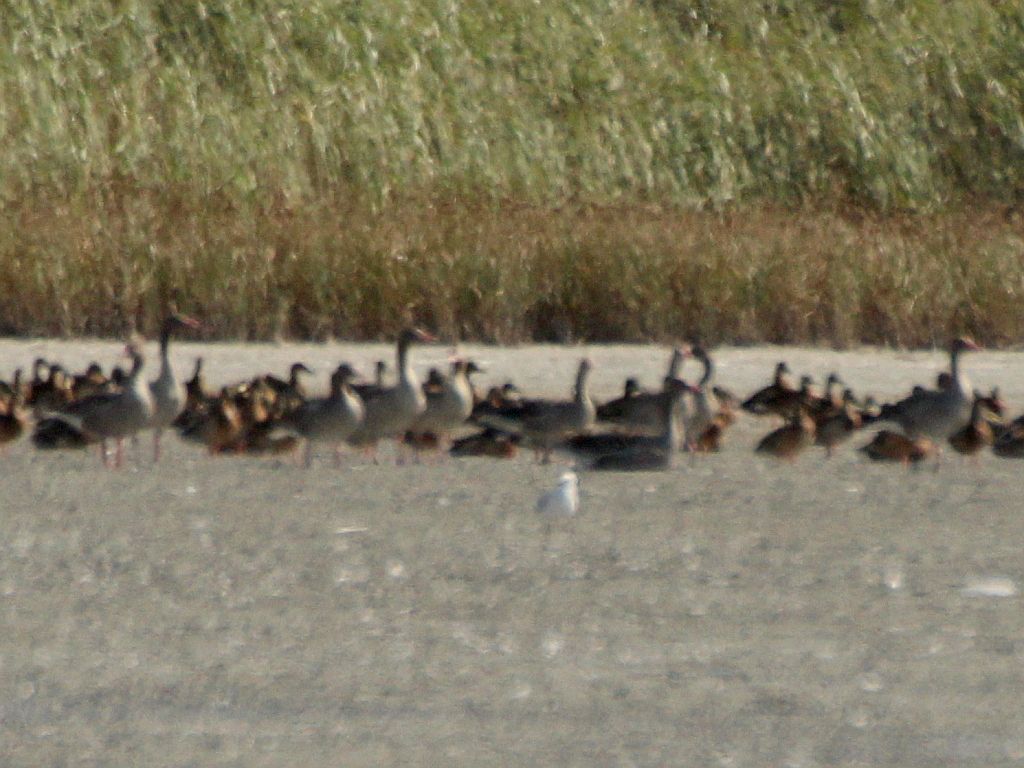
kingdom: Animalia
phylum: Chordata
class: Aves
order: Anseriformes
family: Anatidae
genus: Anser
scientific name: Anser anser
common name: Greylag goose
